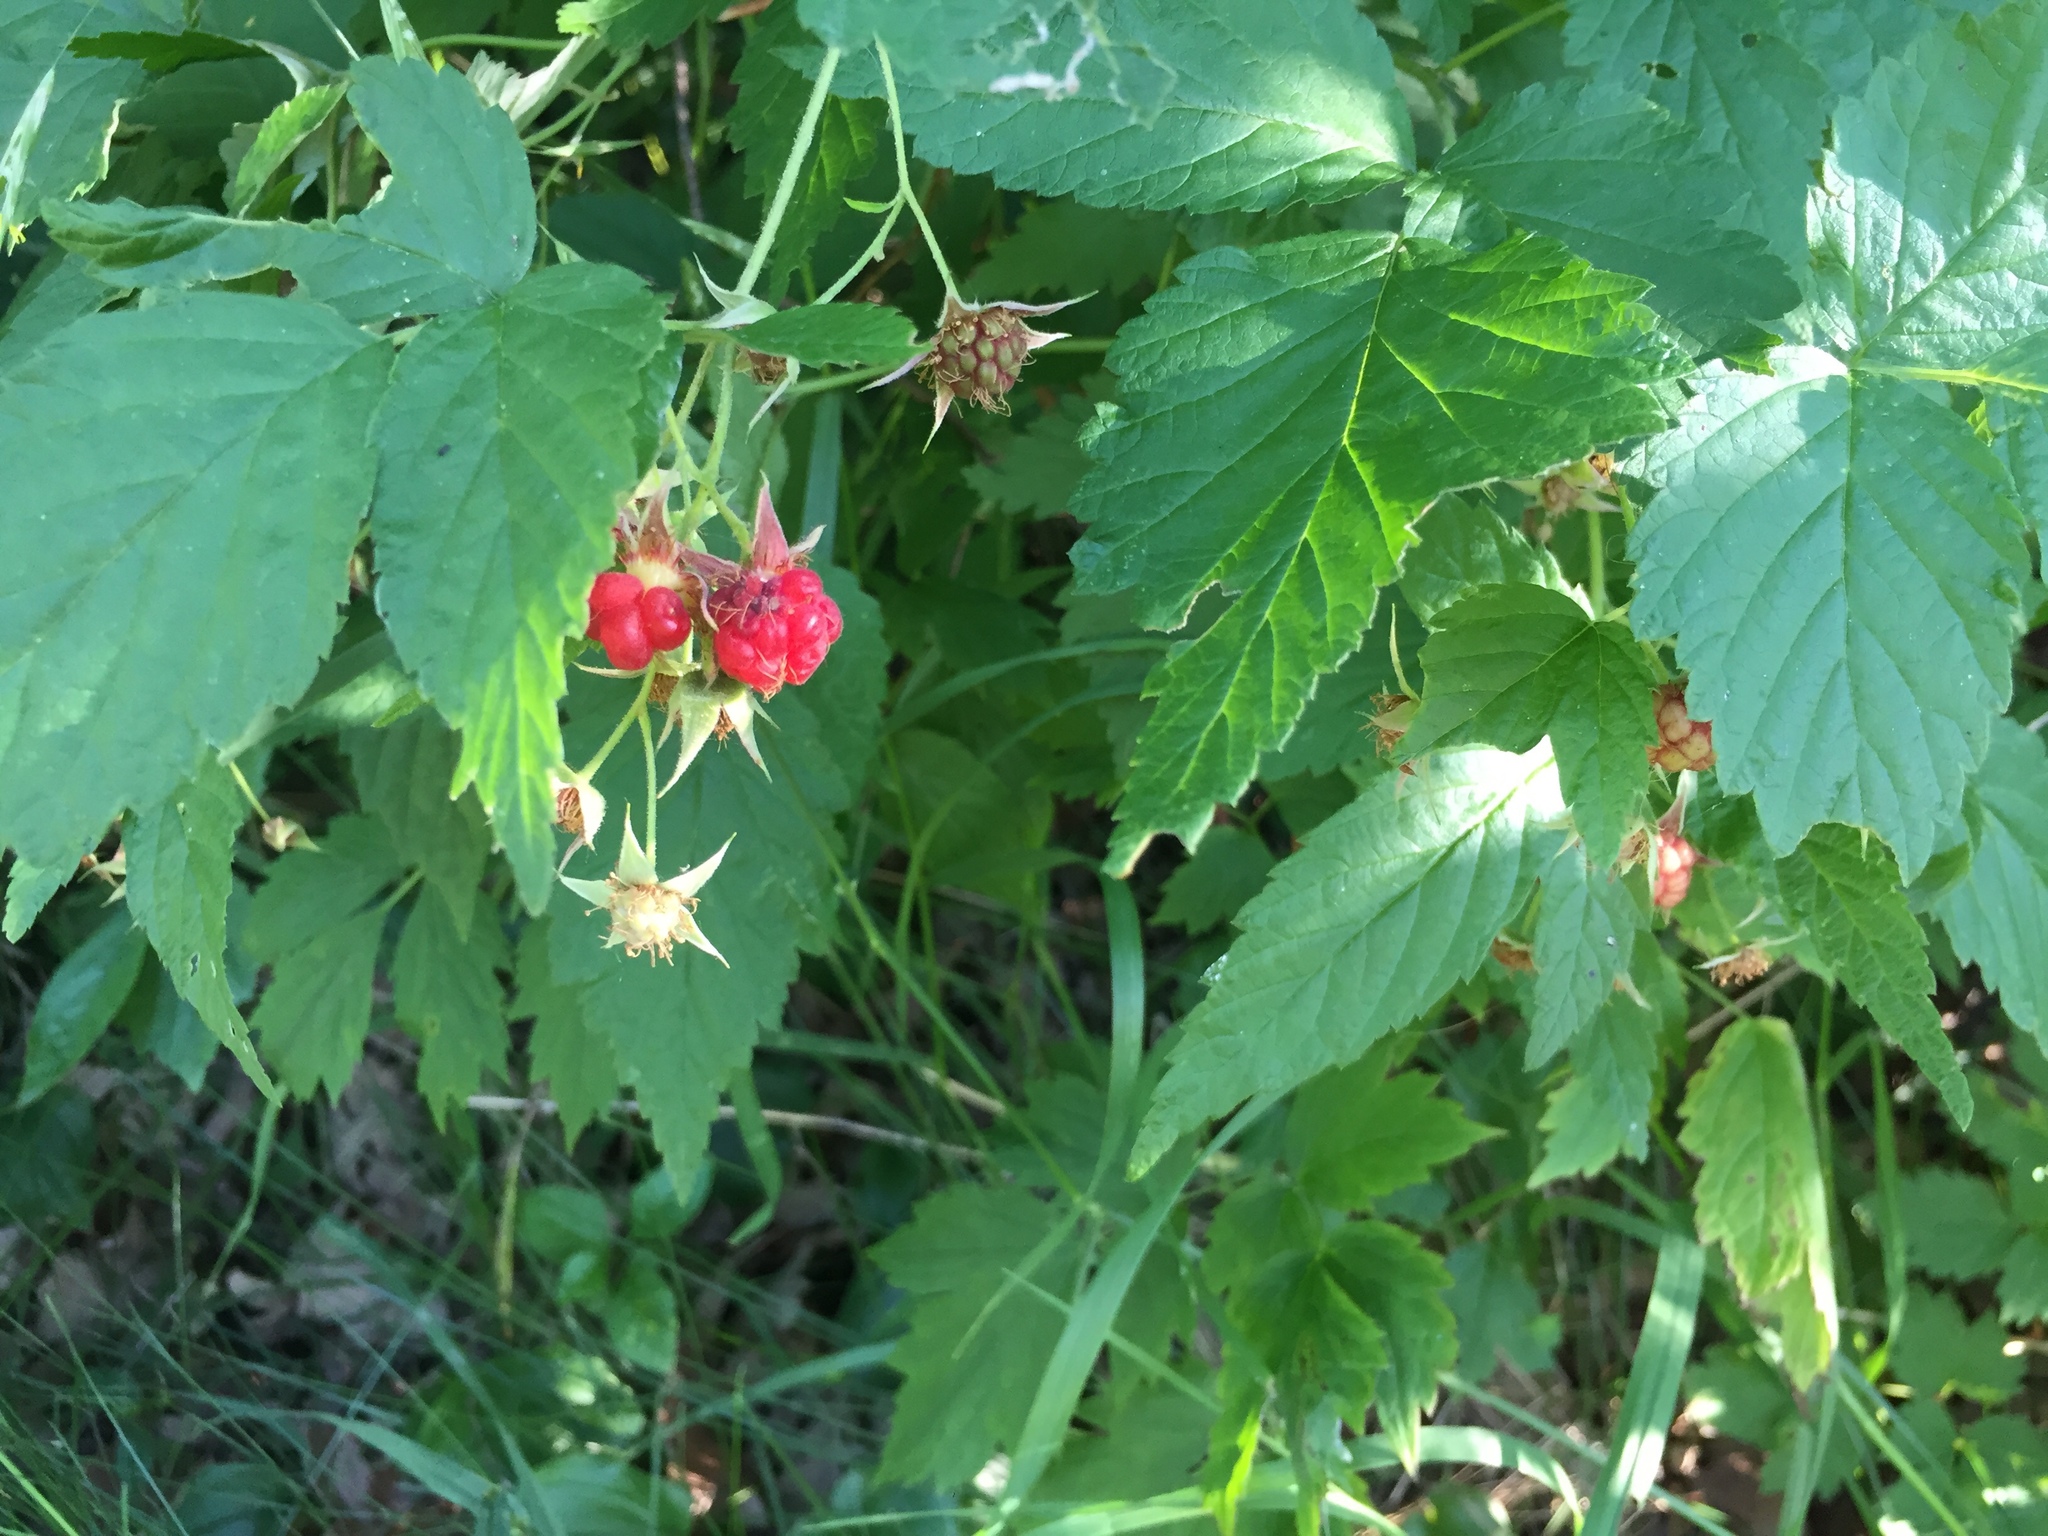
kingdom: Plantae
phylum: Tracheophyta
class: Magnoliopsida
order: Rosales
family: Rosaceae
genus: Rubus
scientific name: Rubus idaeus
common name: Raspberry
